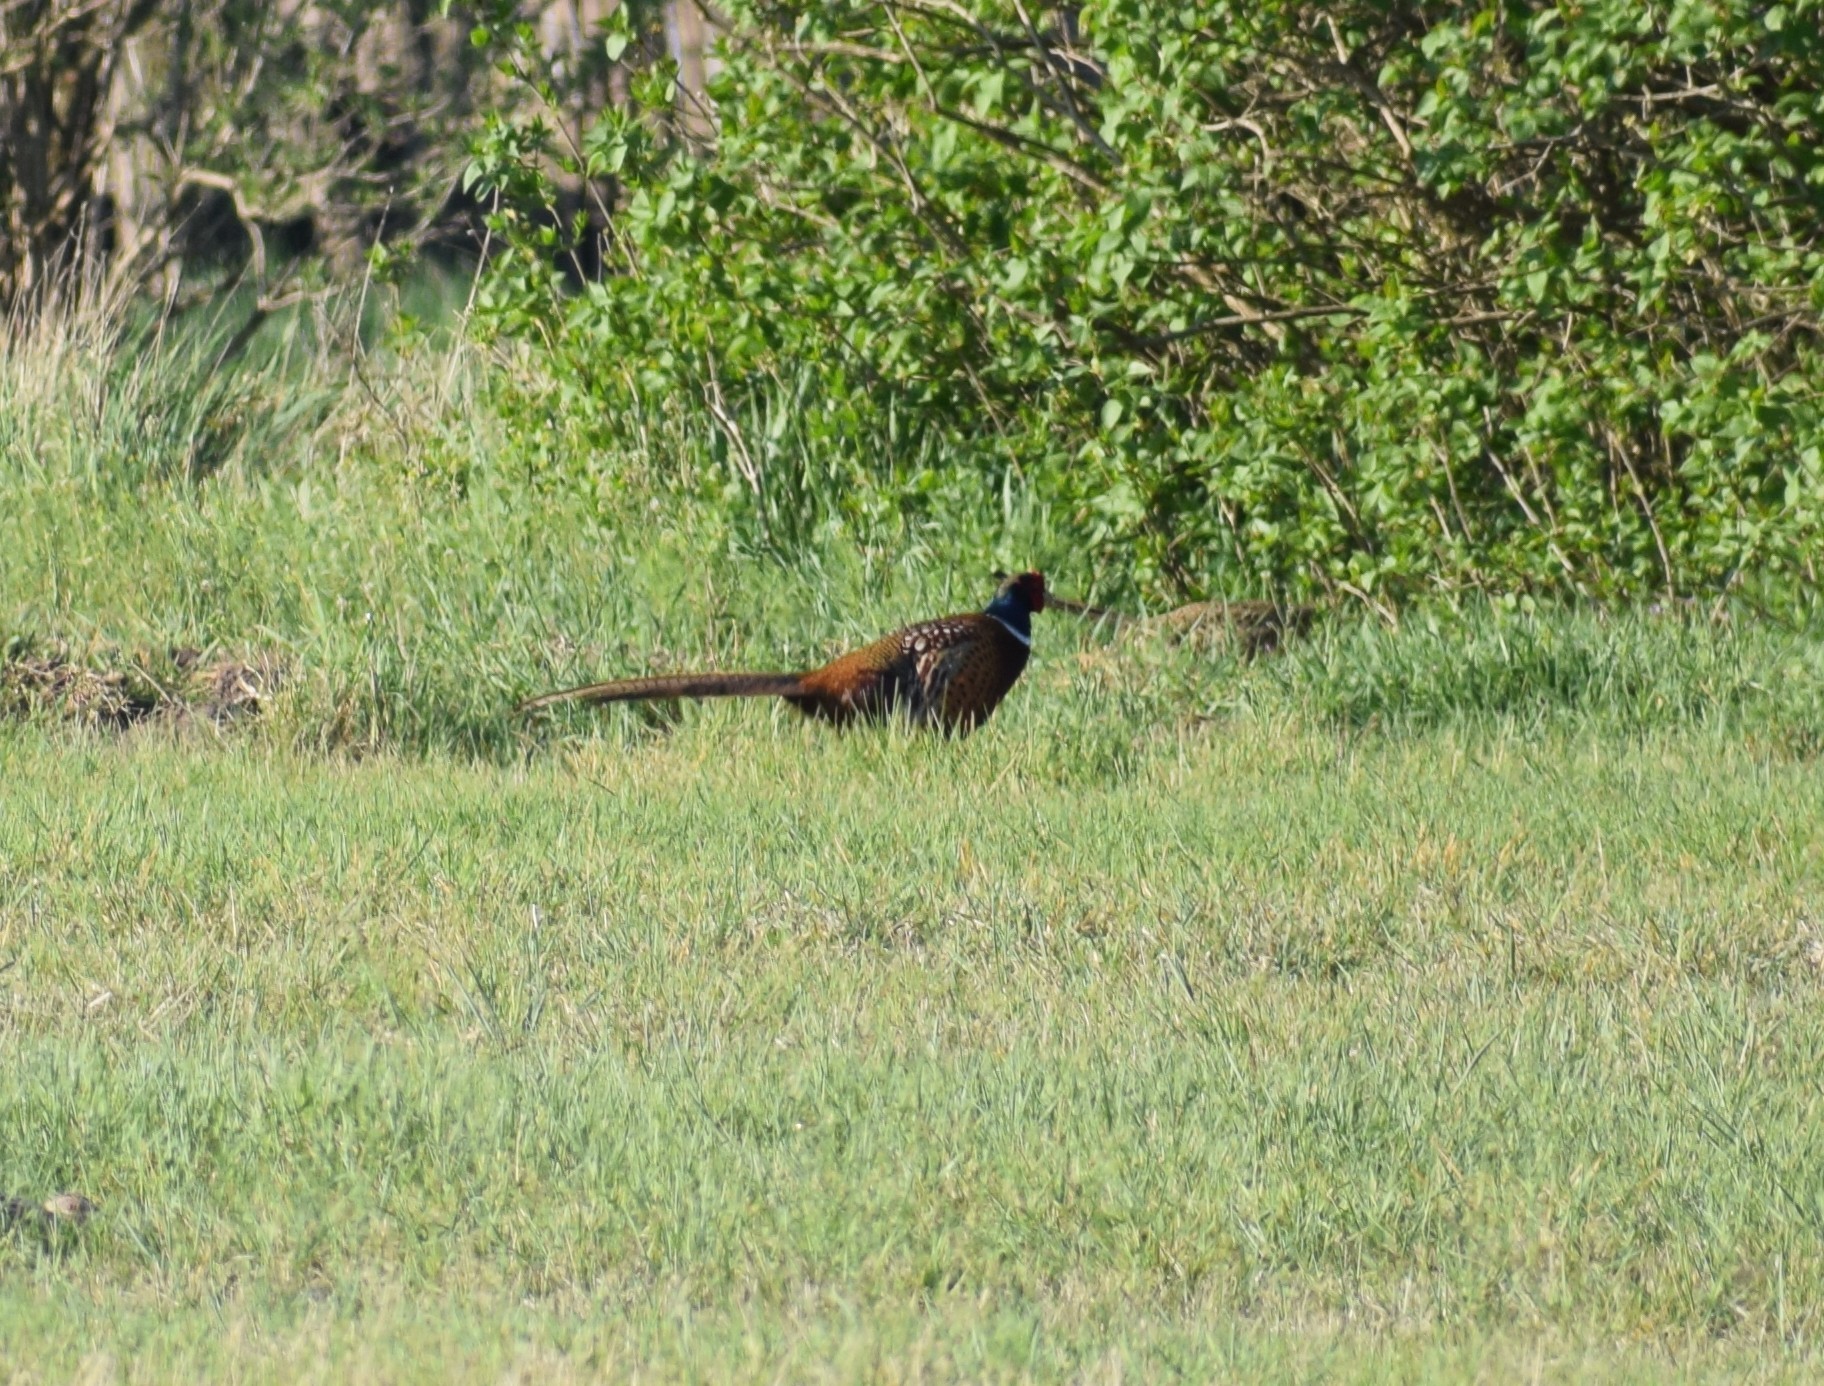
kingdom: Animalia
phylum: Chordata
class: Aves
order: Galliformes
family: Phasianidae
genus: Phasianus
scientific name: Phasianus colchicus
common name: Common pheasant
